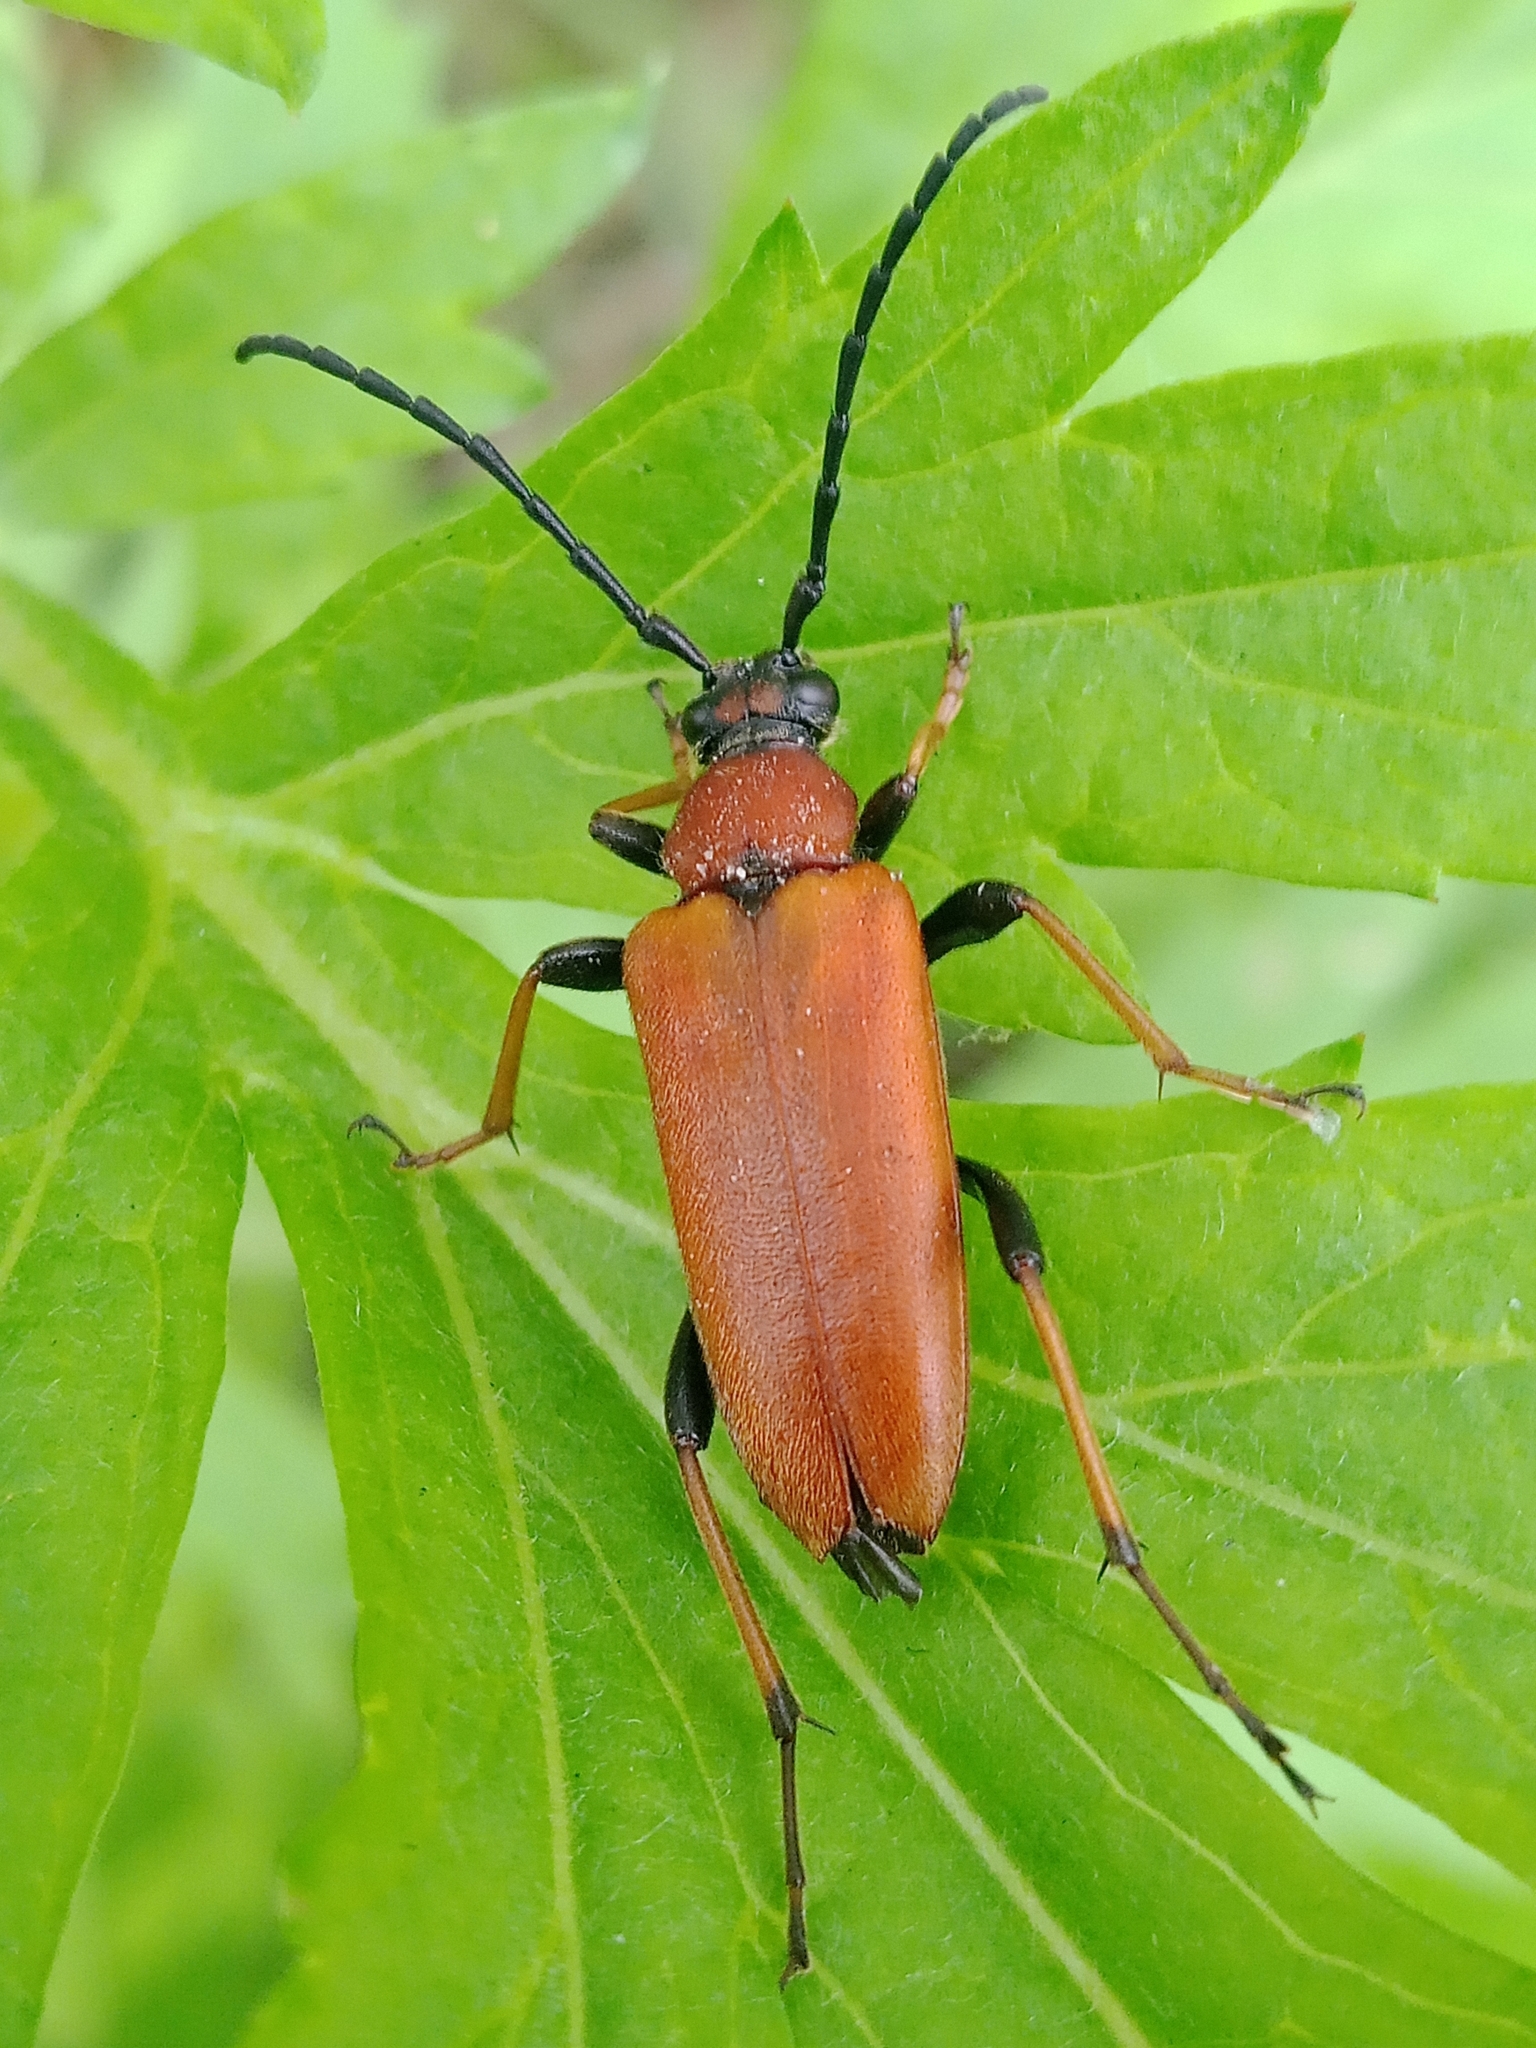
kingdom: Animalia
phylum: Arthropoda
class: Insecta
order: Coleoptera
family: Cerambycidae
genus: Stictoleptura
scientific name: Stictoleptura rubra
